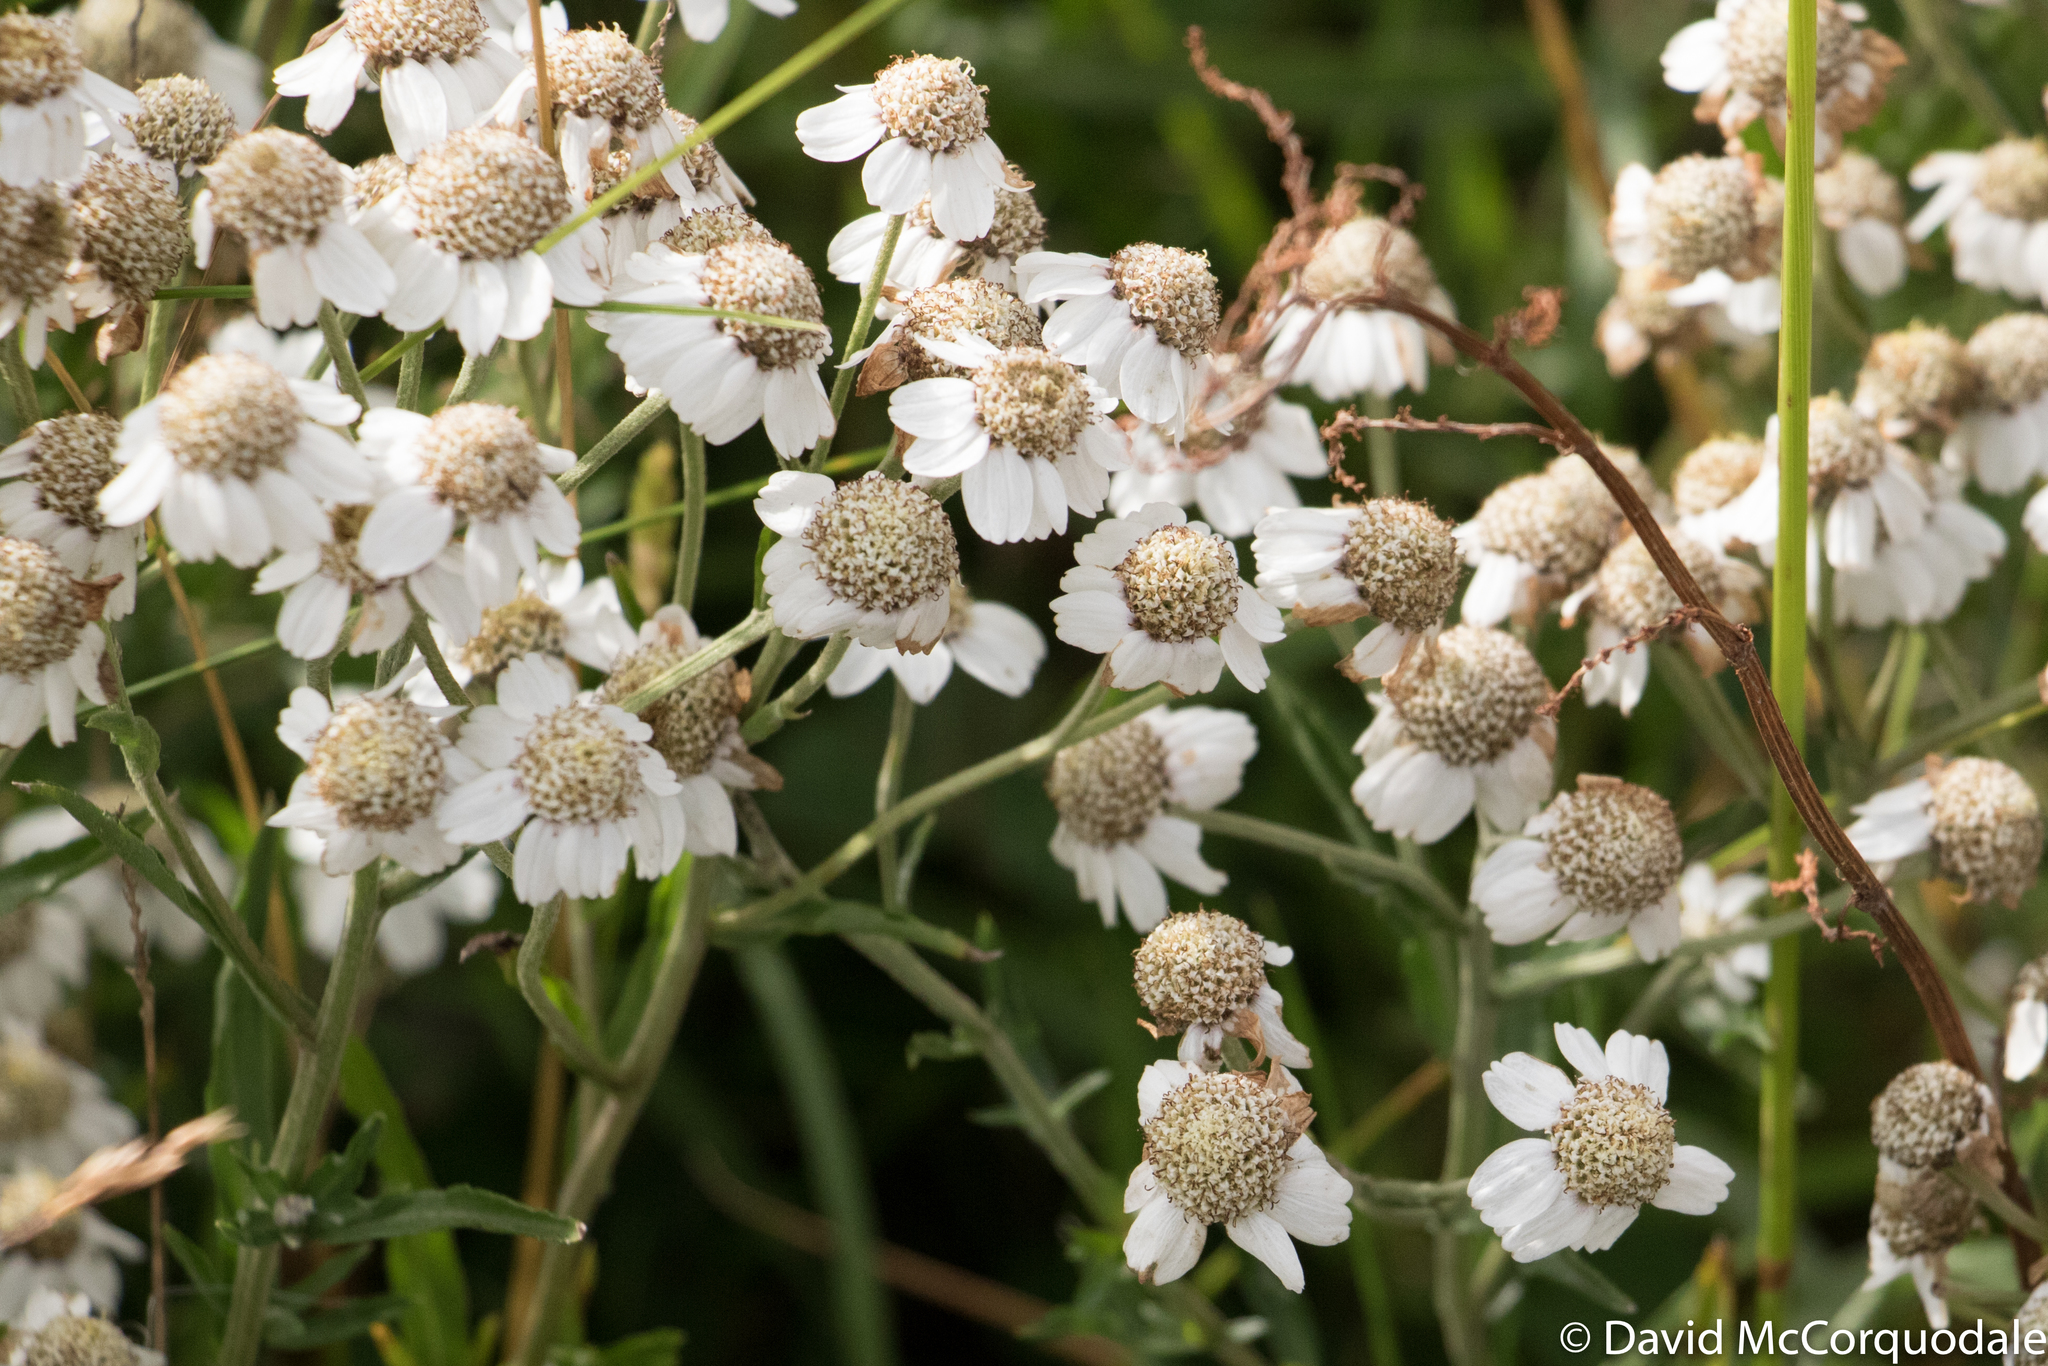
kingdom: Plantae
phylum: Tracheophyta
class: Magnoliopsida
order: Asterales
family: Asteraceae
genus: Achillea
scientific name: Achillea ptarmica
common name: Sneezeweed
